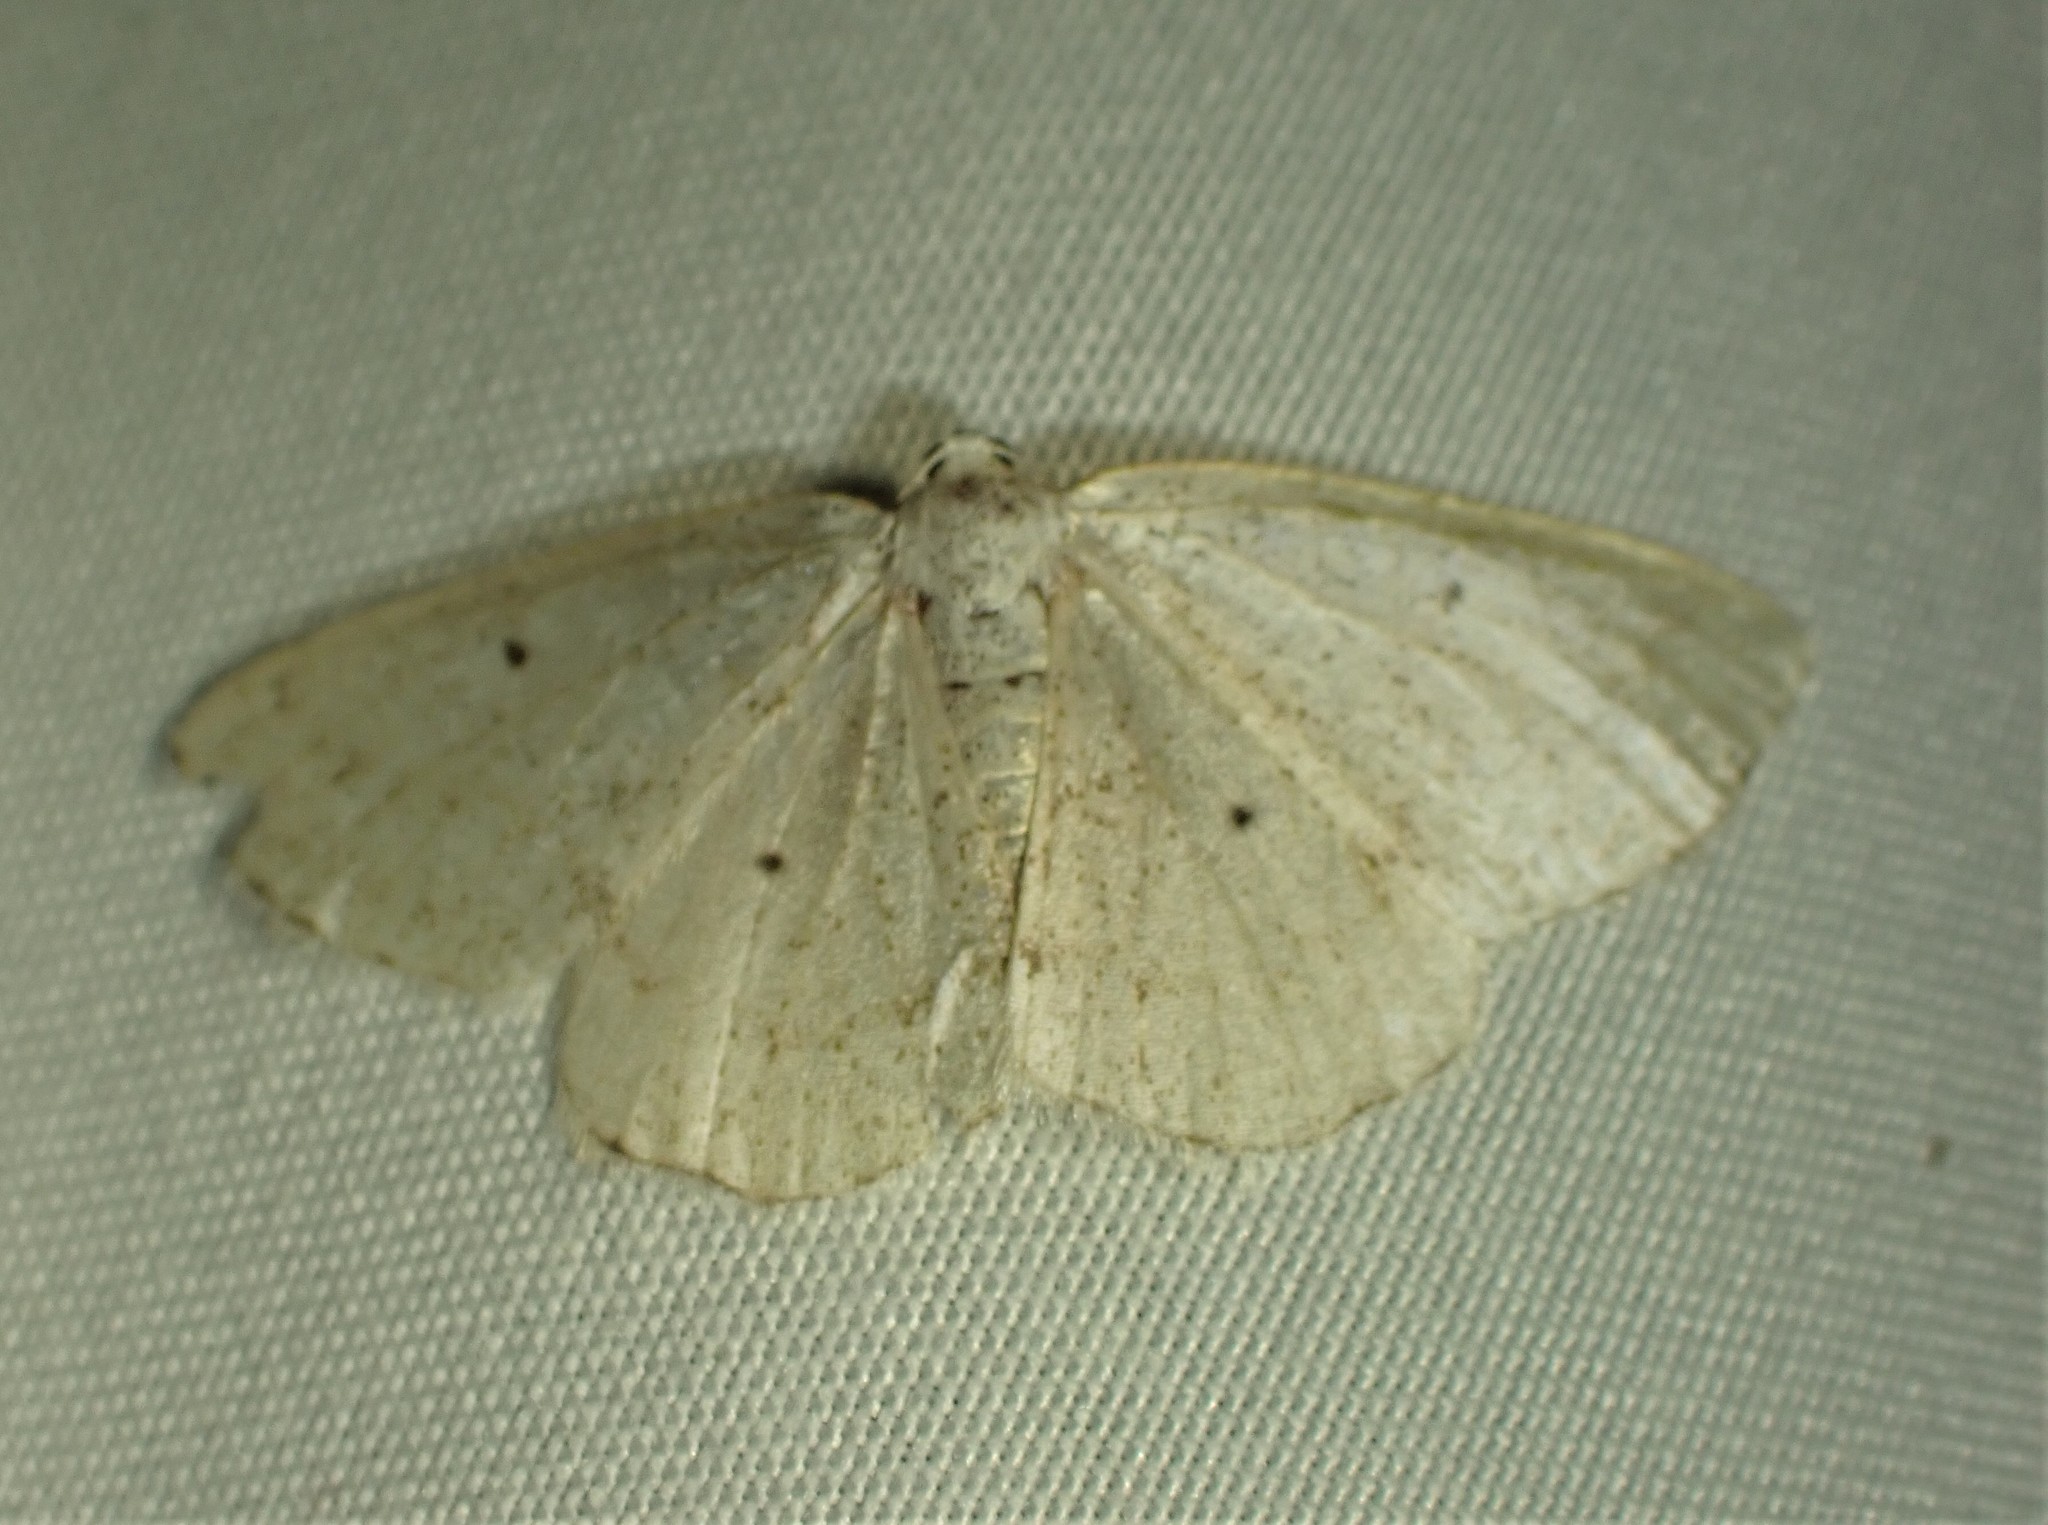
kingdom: Animalia
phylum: Arthropoda
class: Insecta
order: Lepidoptera
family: Geometridae
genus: Lomographa
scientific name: Lomographa glomeraria
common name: Gray spring moth
